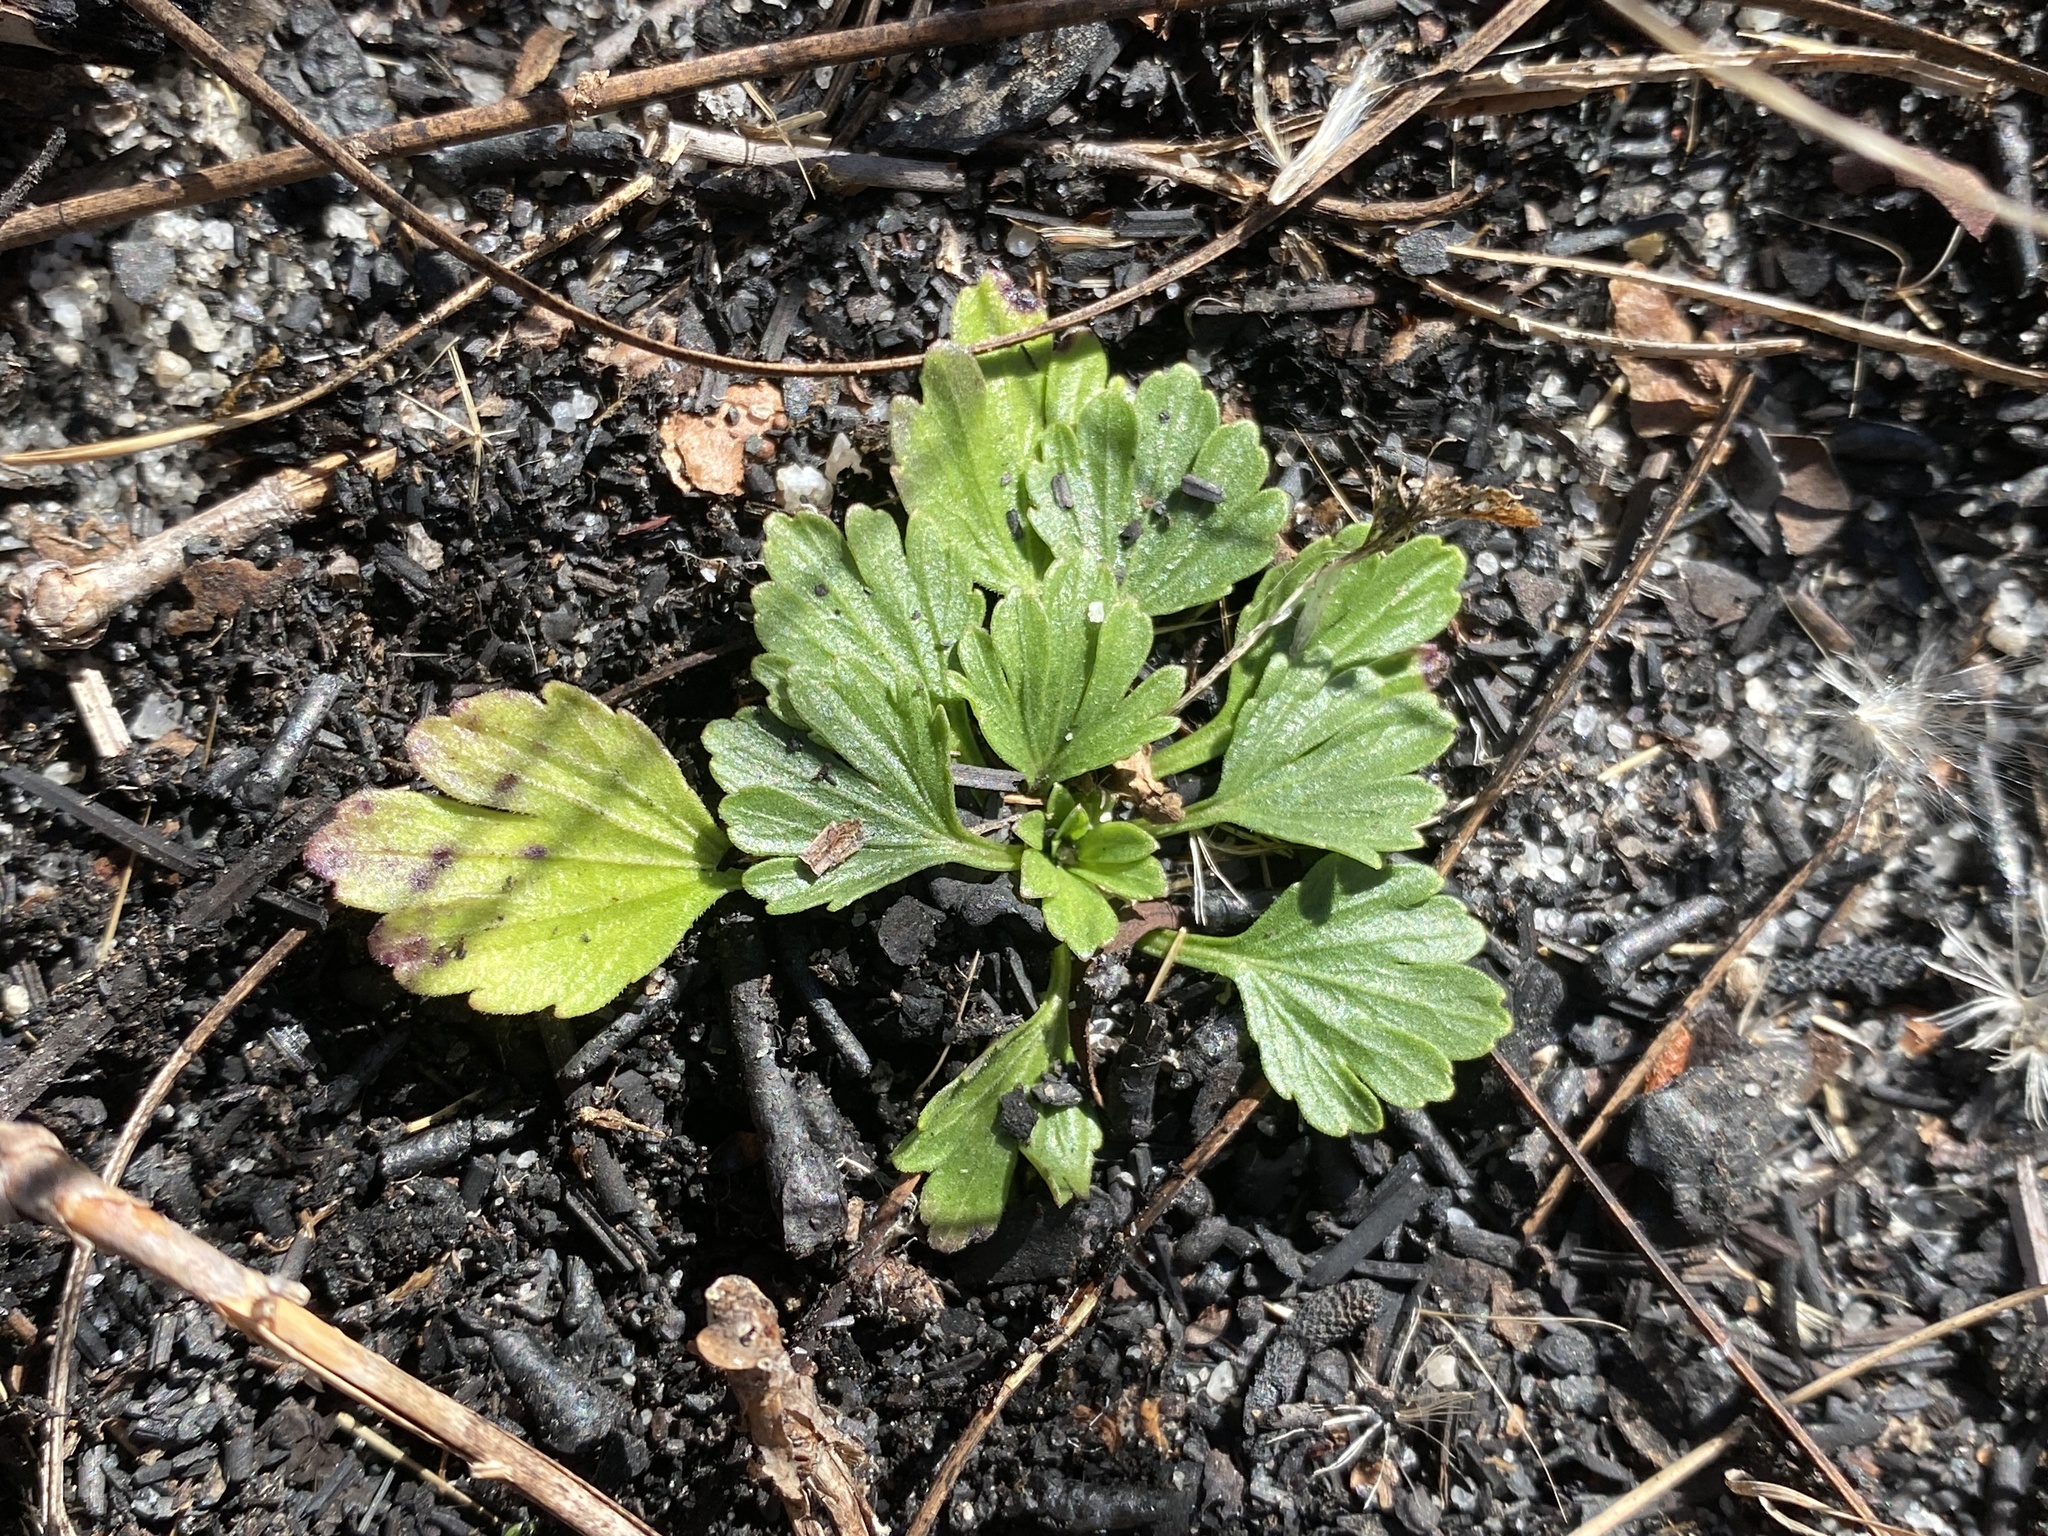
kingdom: Plantae
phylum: Tracheophyta
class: Magnoliopsida
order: Malpighiales
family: Violaceae
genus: Viola
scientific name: Viola pedata
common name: Pansy violet
